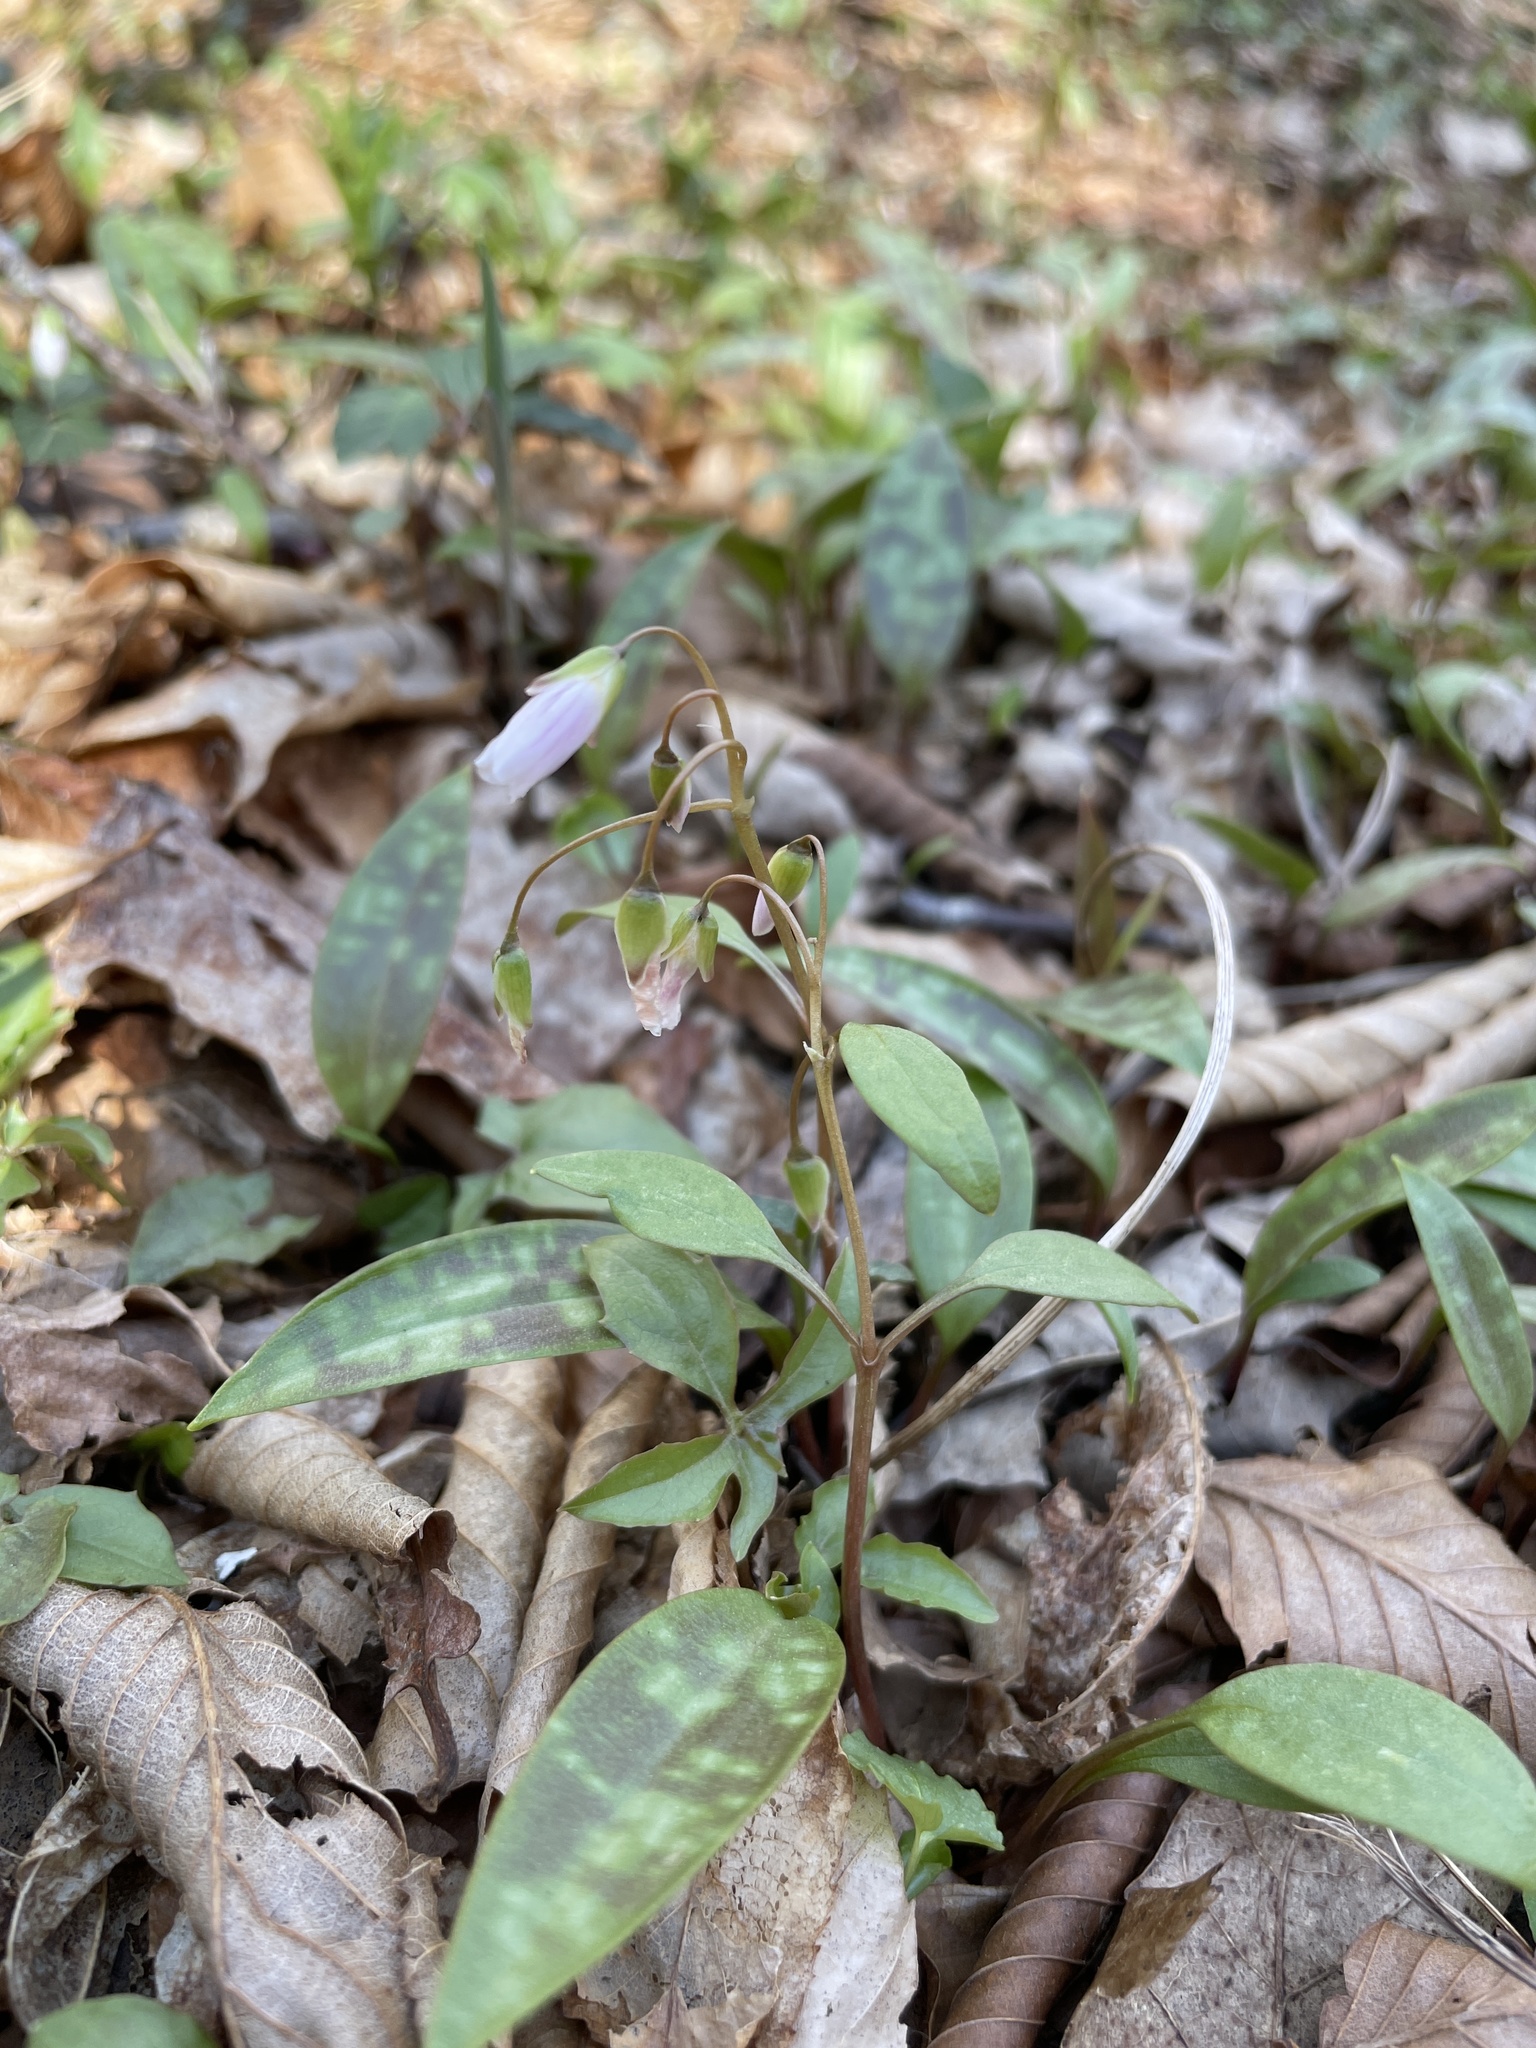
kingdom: Plantae
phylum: Tracheophyta
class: Magnoliopsida
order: Caryophyllales
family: Montiaceae
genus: Claytonia
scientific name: Claytonia caroliniana
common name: Carolina spring beauty
